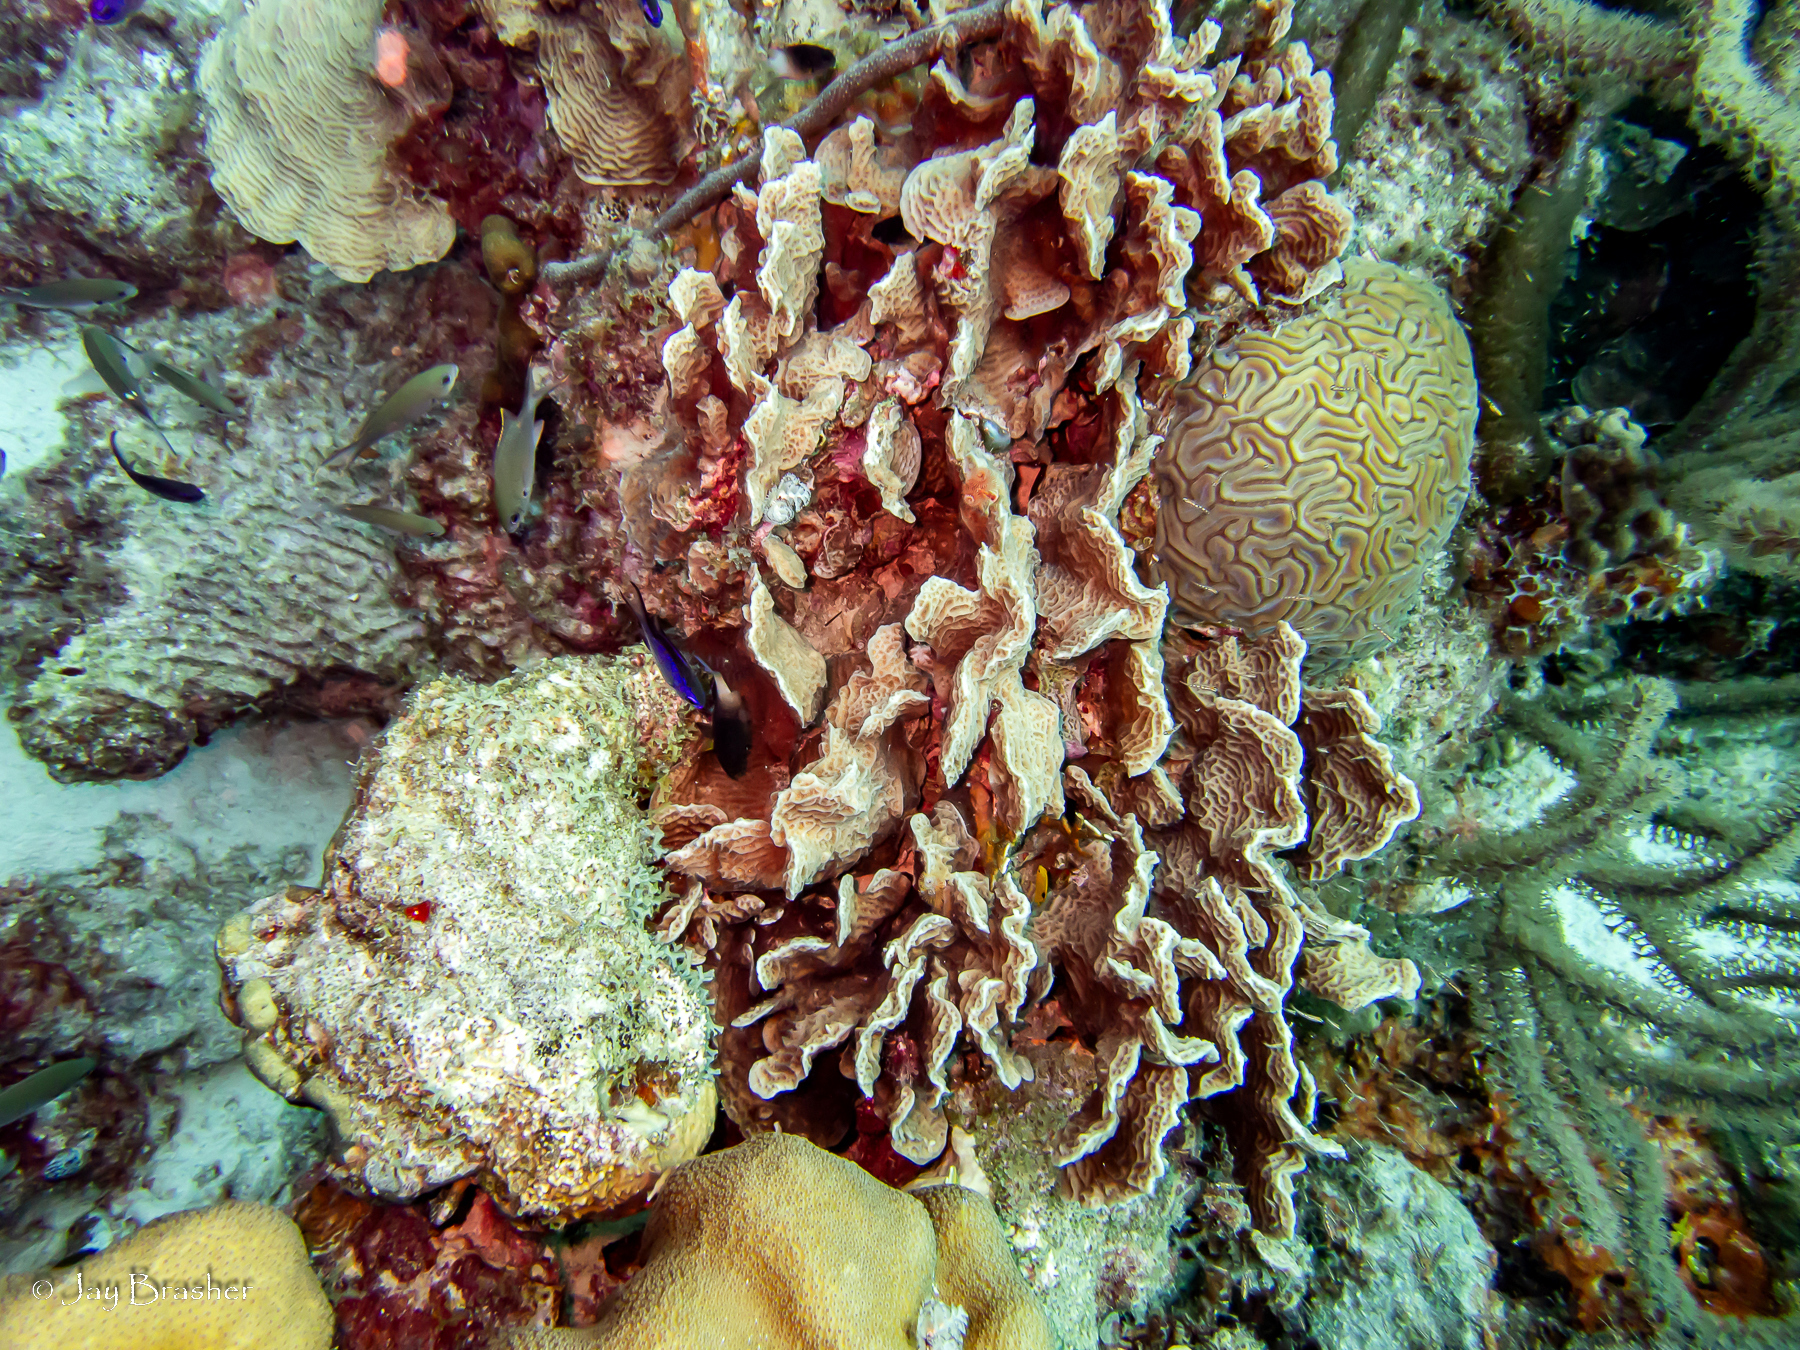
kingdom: Animalia
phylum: Chordata
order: Perciformes
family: Pomacentridae
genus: Chromis
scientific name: Chromis multilineata
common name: Brown chromis
